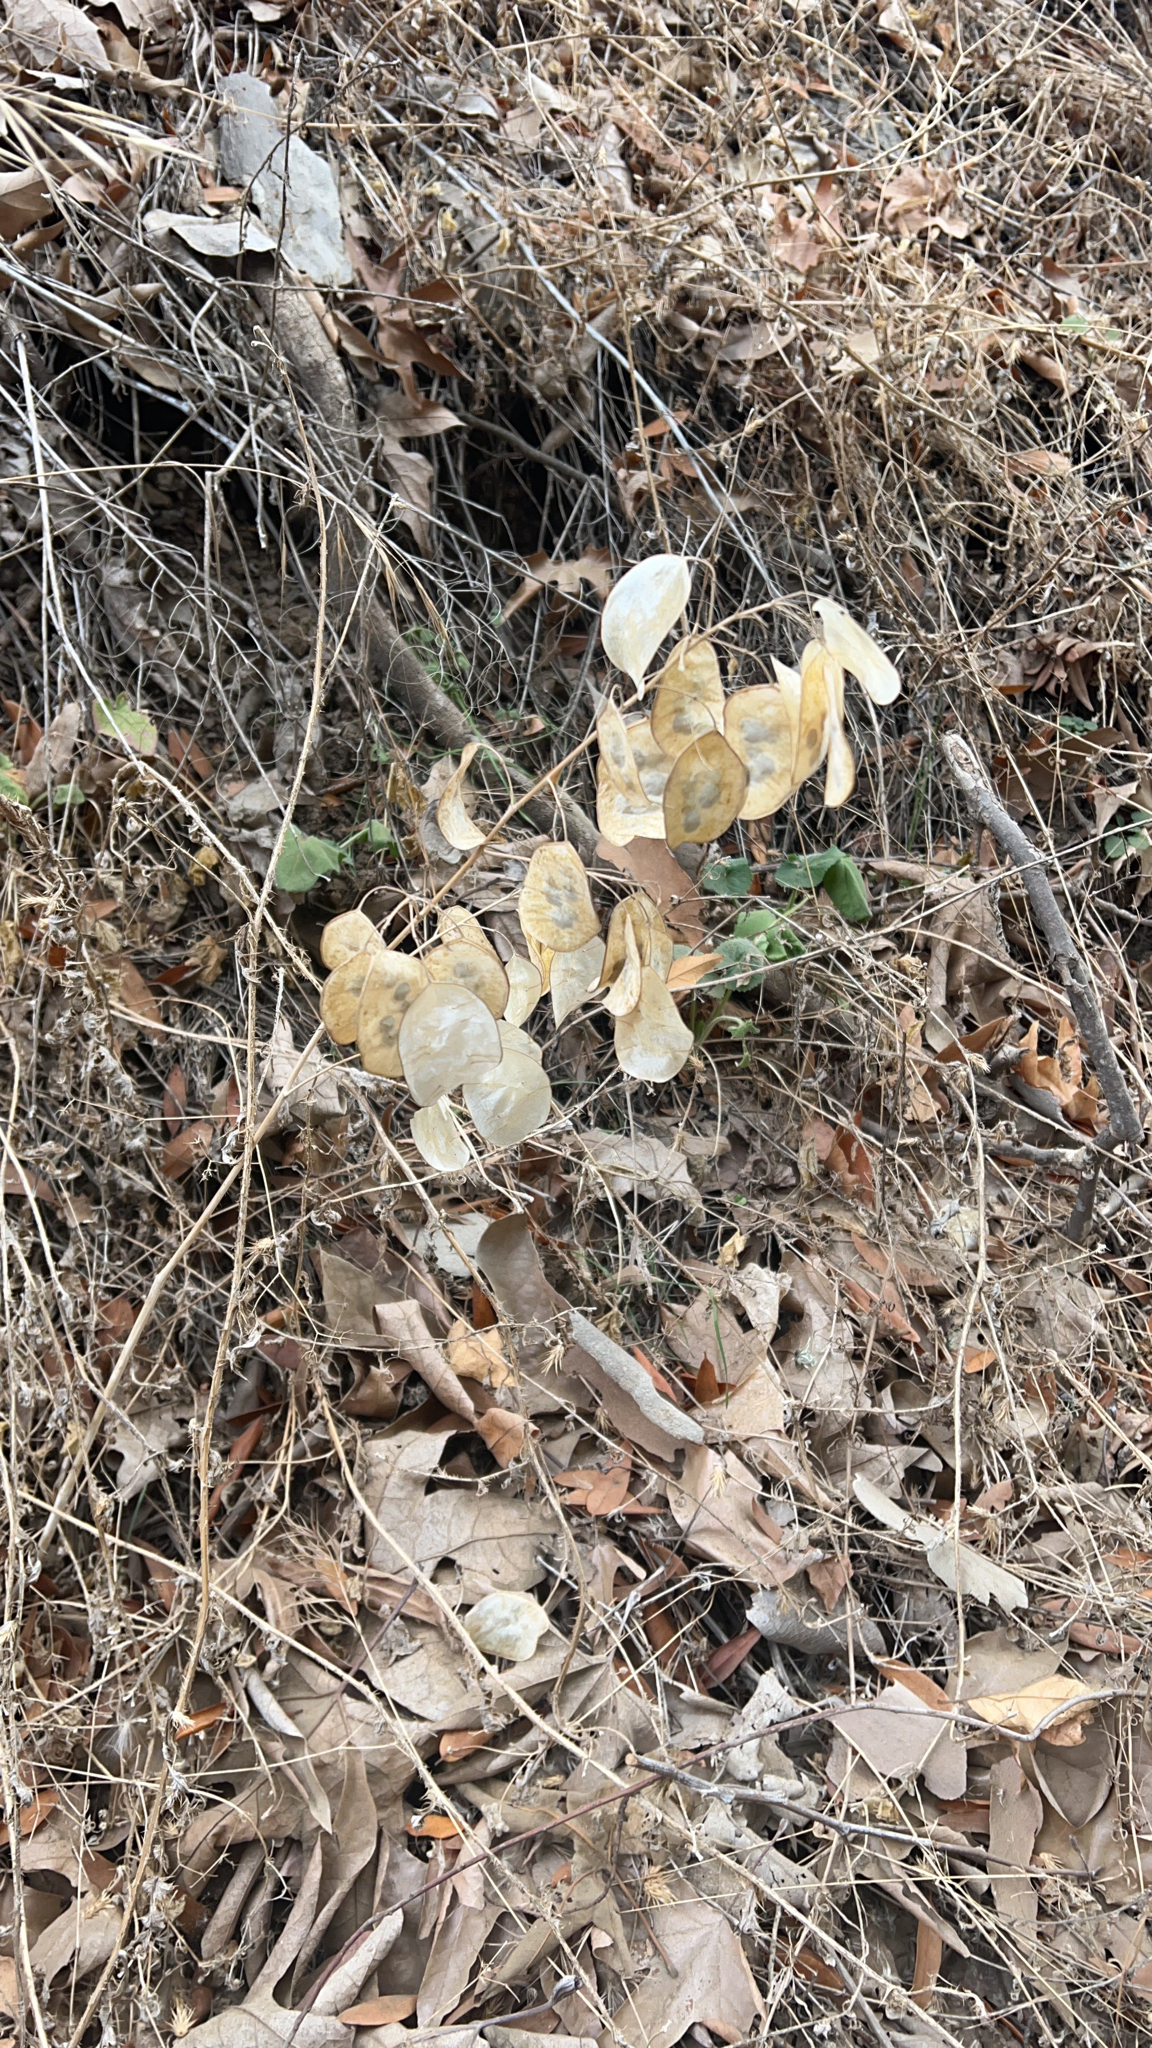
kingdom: Plantae
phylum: Tracheophyta
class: Magnoliopsida
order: Brassicales
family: Brassicaceae
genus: Lunaria
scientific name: Lunaria annua
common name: Honesty
